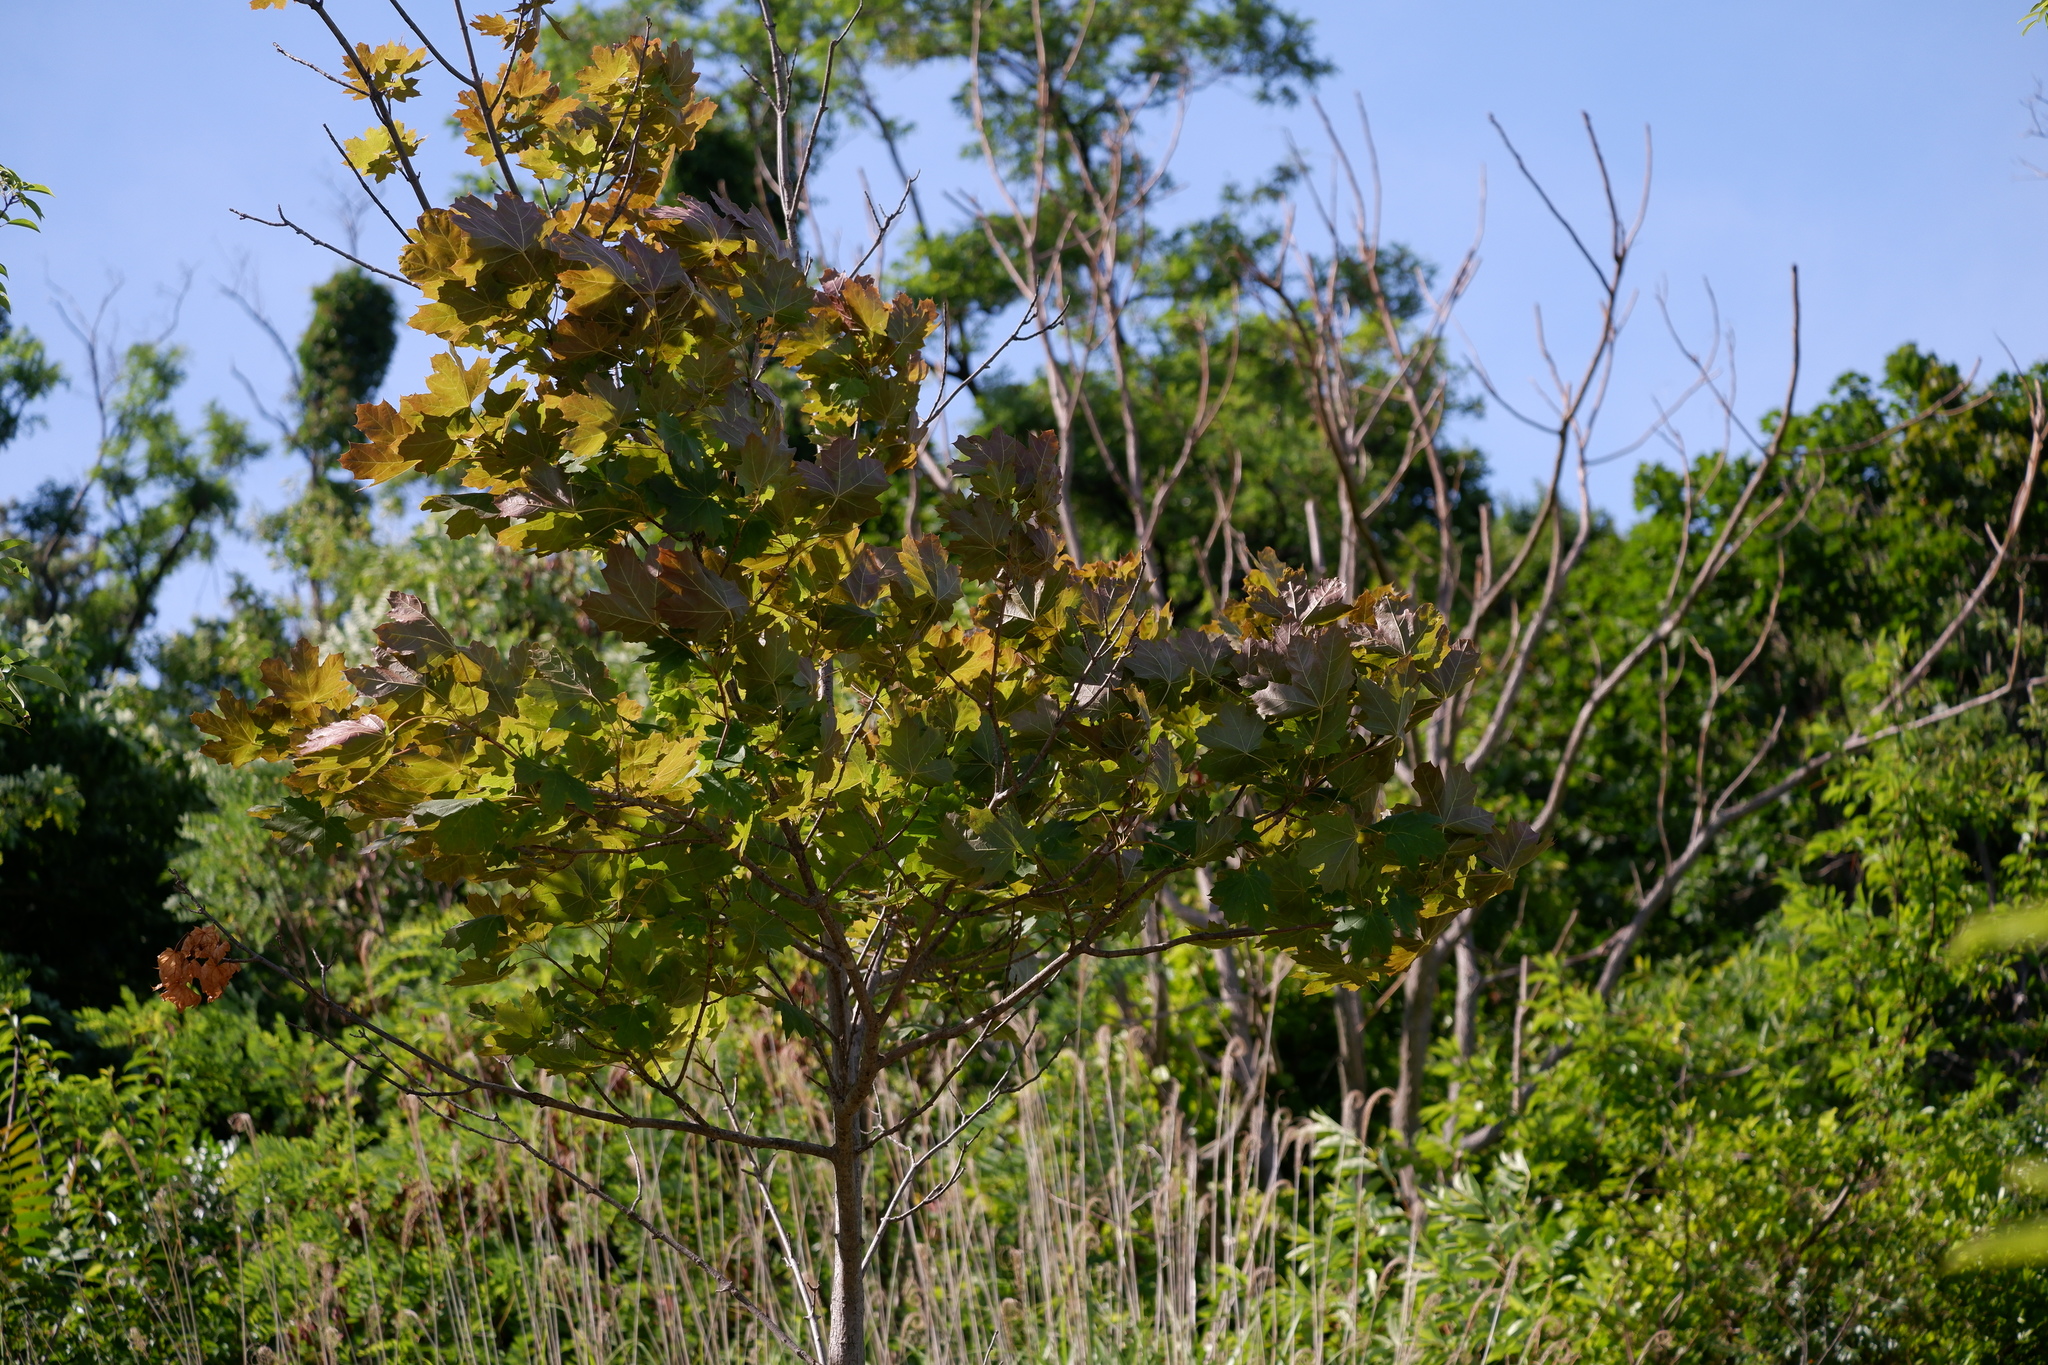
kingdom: Plantae
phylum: Tracheophyta
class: Magnoliopsida
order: Sapindales
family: Sapindaceae
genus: Acer
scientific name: Acer platanoides
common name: Norway maple
